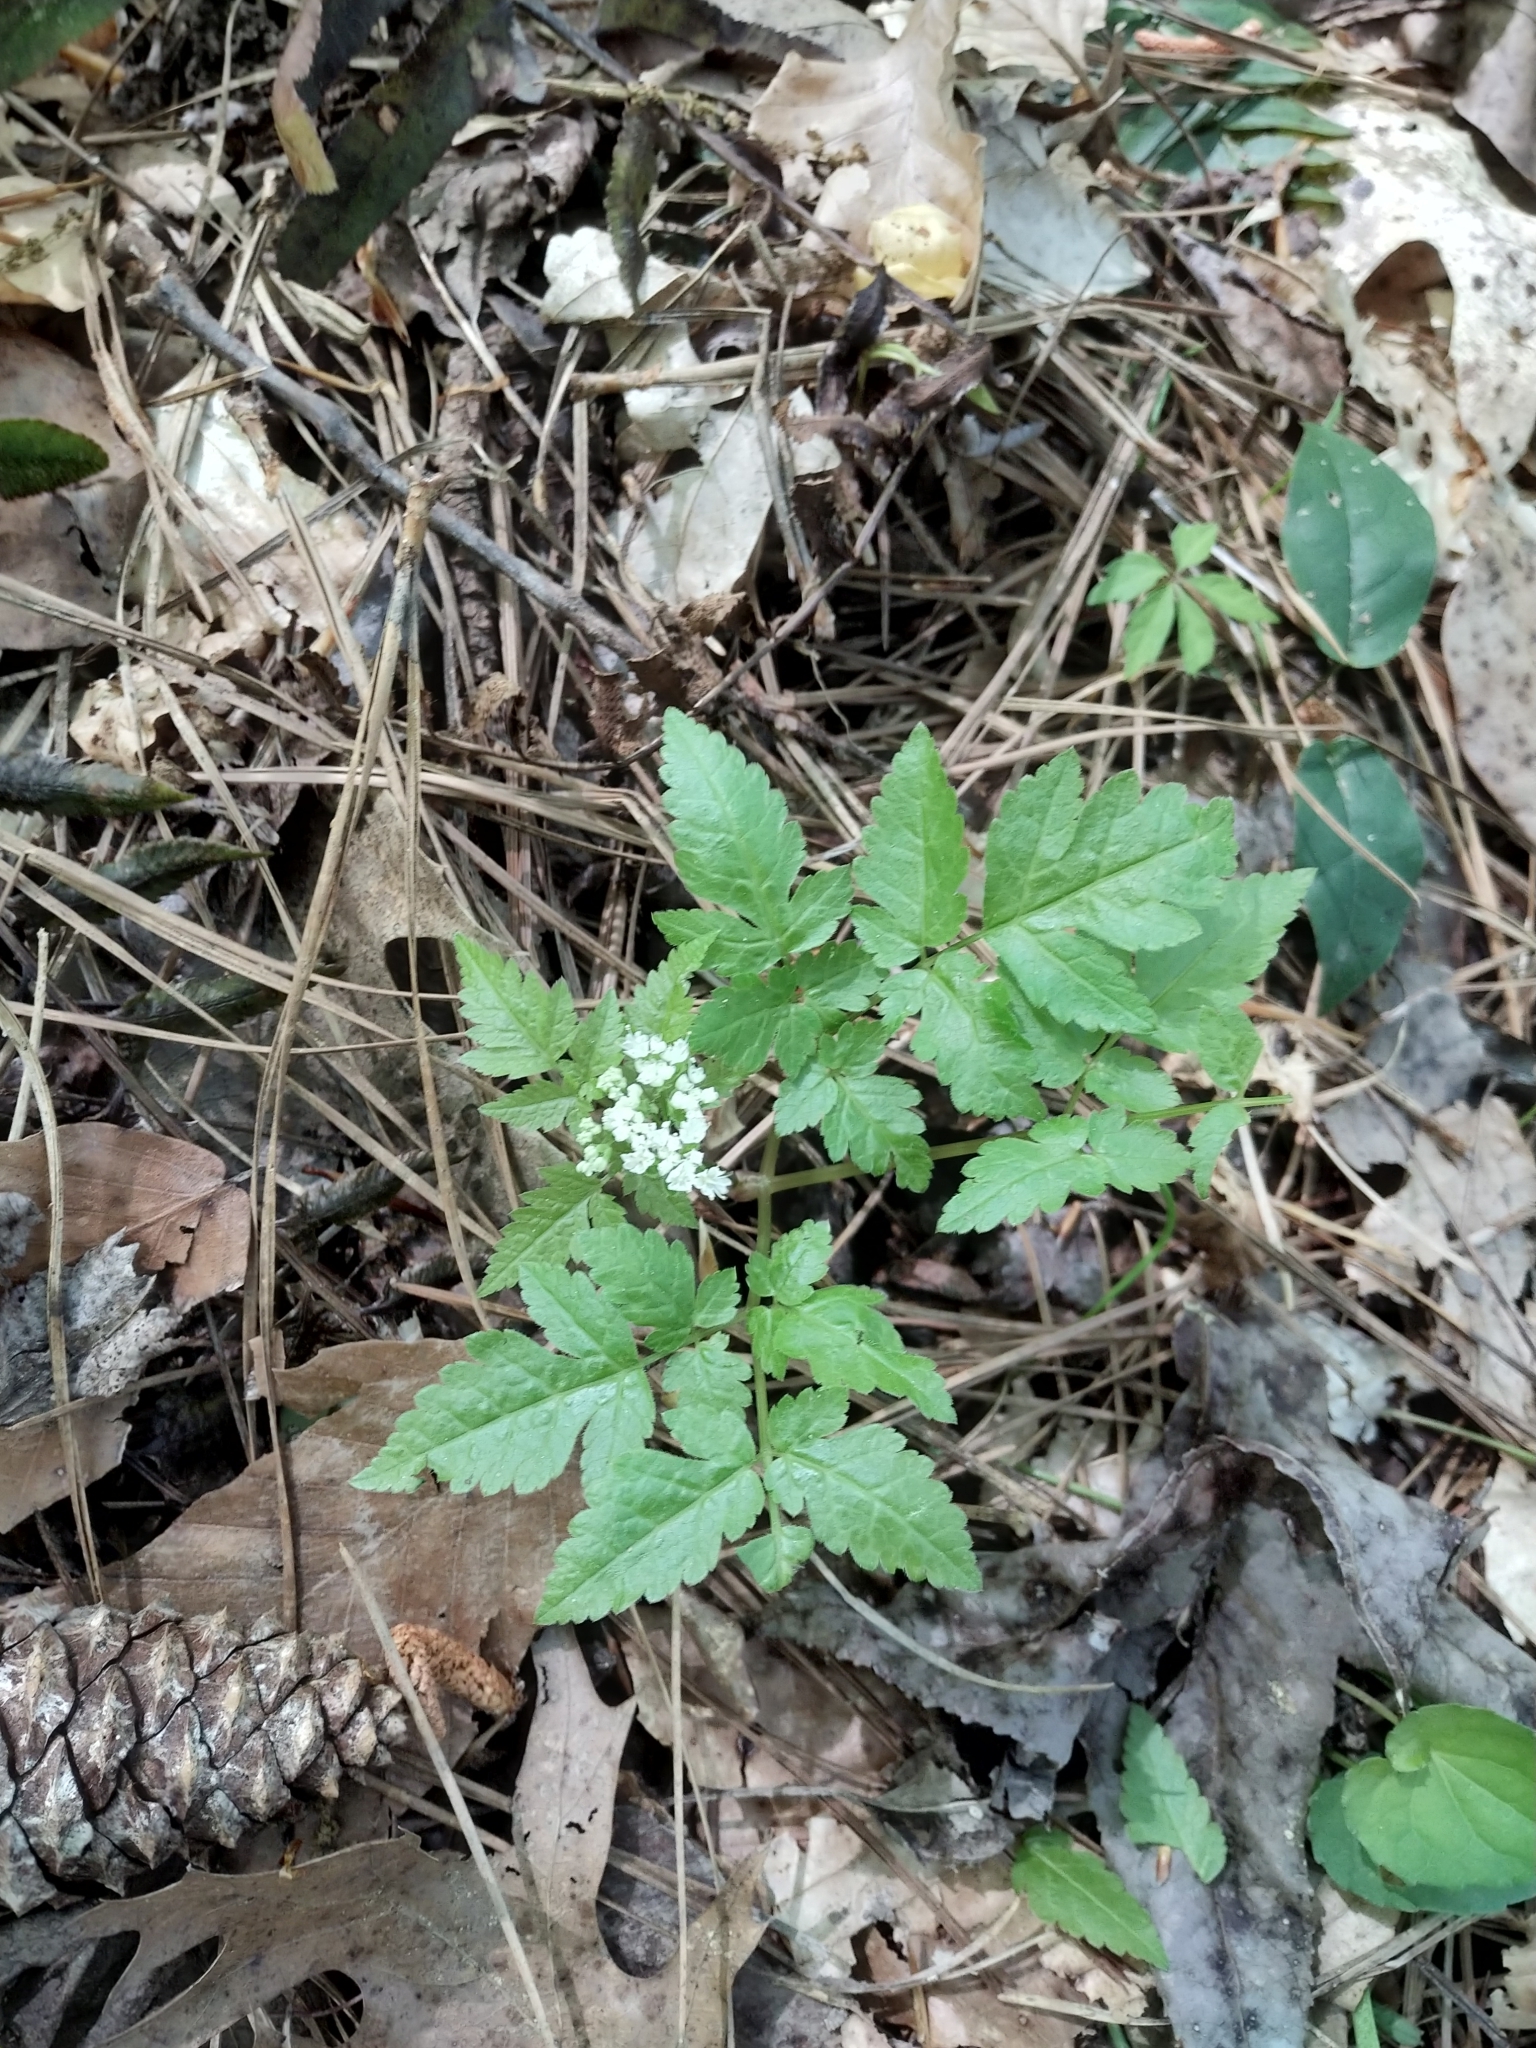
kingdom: Plantae
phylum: Tracheophyta
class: Magnoliopsida
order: Apiales
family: Apiaceae
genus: Osmorhiza
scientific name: Osmorhiza longistylis
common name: Smooth sweet cicely
